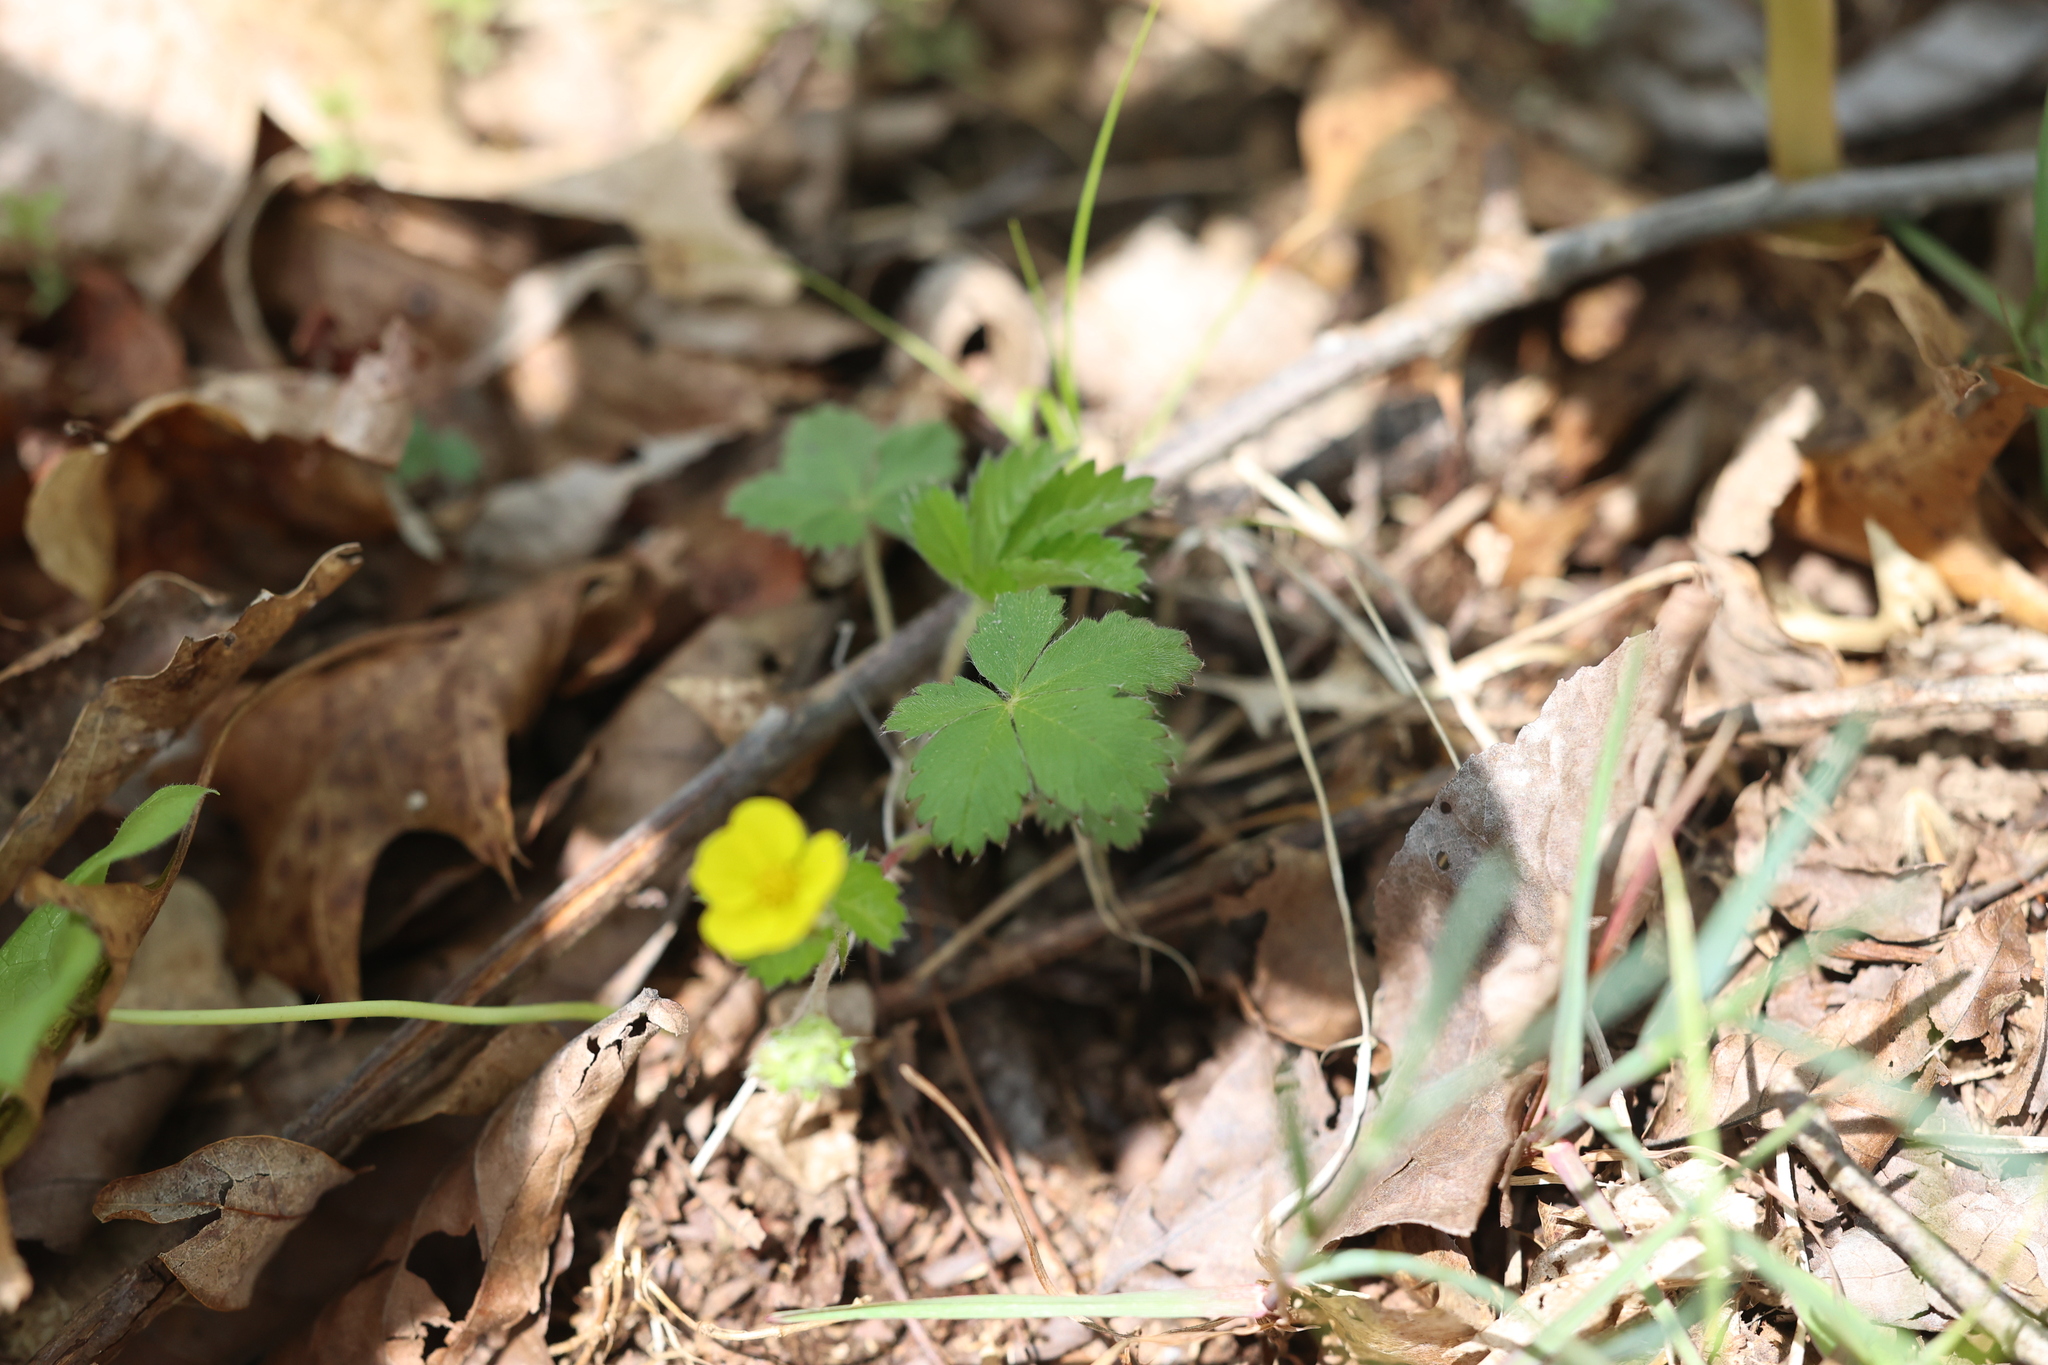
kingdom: Plantae
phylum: Tracheophyta
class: Magnoliopsida
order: Rosales
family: Rosaceae
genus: Potentilla
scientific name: Potentilla canadensis
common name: Canada cinquefoil
